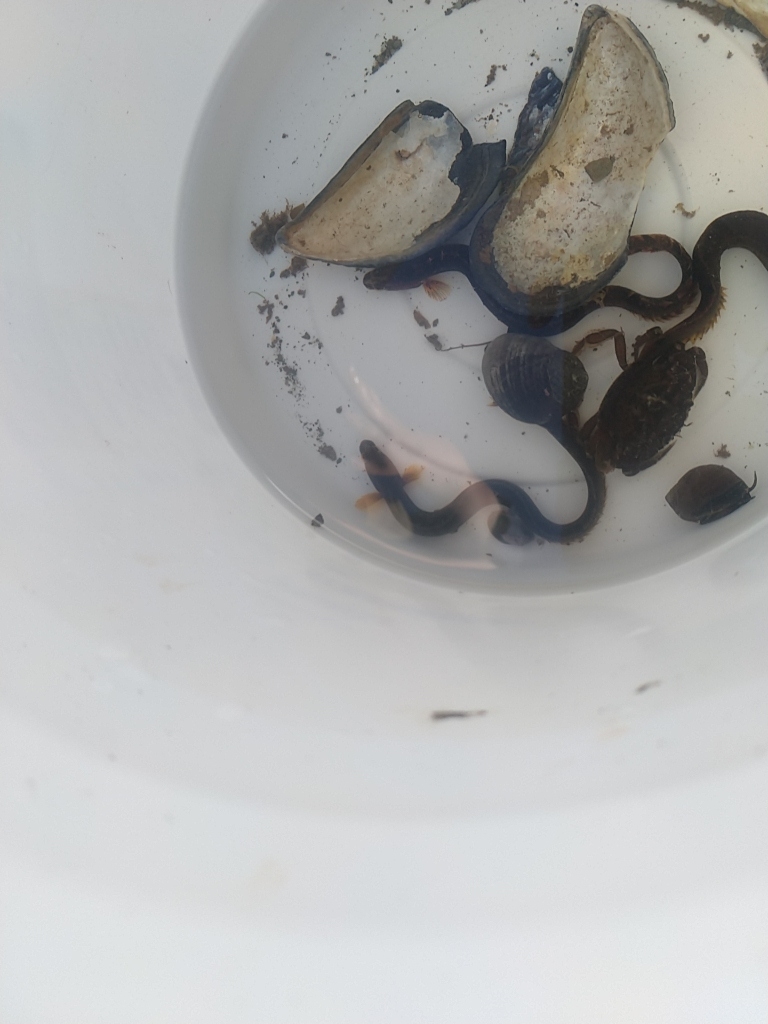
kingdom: Animalia
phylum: Chordata
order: Perciformes
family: Pholidae
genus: Pholis
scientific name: Pholis gunnellus
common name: Butterfish
